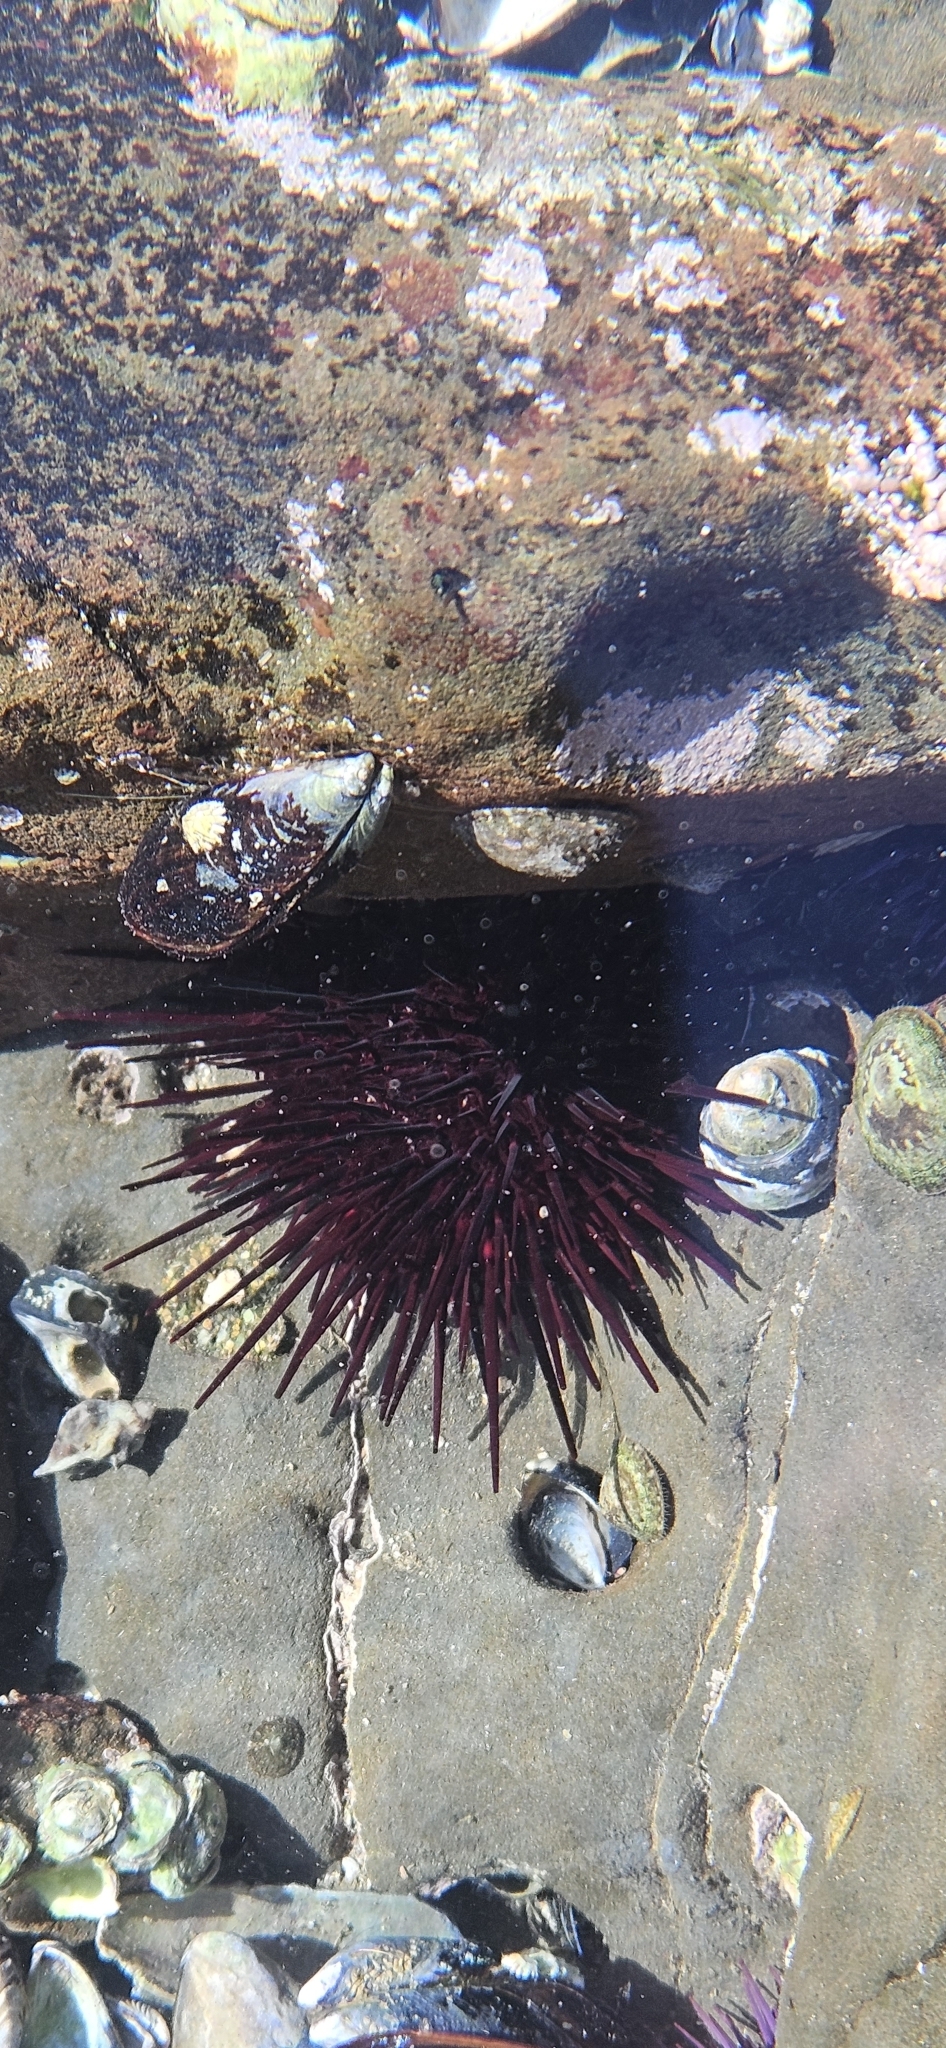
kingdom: Animalia
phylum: Echinodermata
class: Echinoidea
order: Camarodonta
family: Strongylocentrotidae
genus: Mesocentrotus
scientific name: Mesocentrotus franciscanus
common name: Red sea urchin
